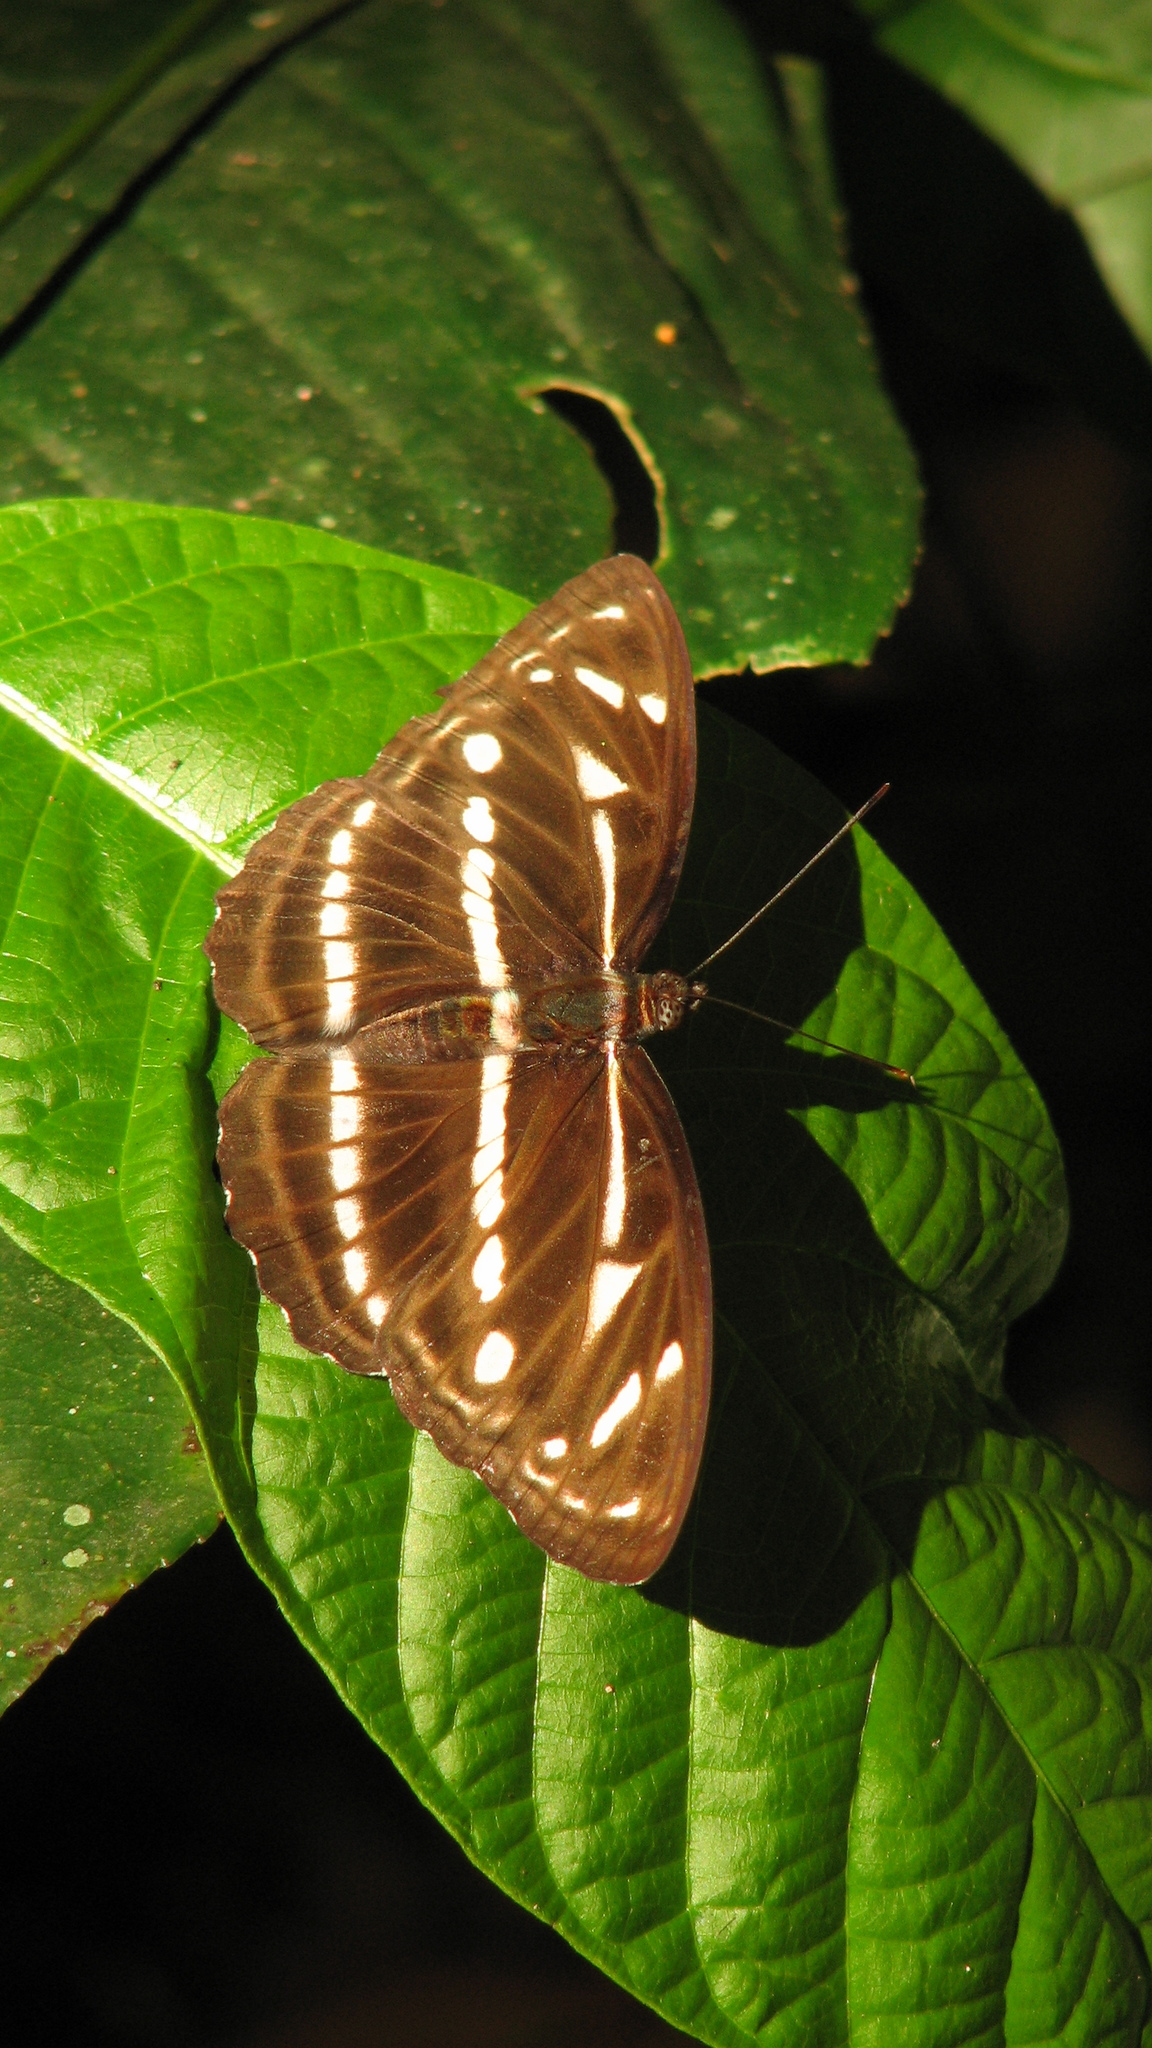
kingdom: Animalia
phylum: Arthropoda
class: Insecta
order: Lepidoptera
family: Nymphalidae
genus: Parathyma
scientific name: Parathyma kanwa
